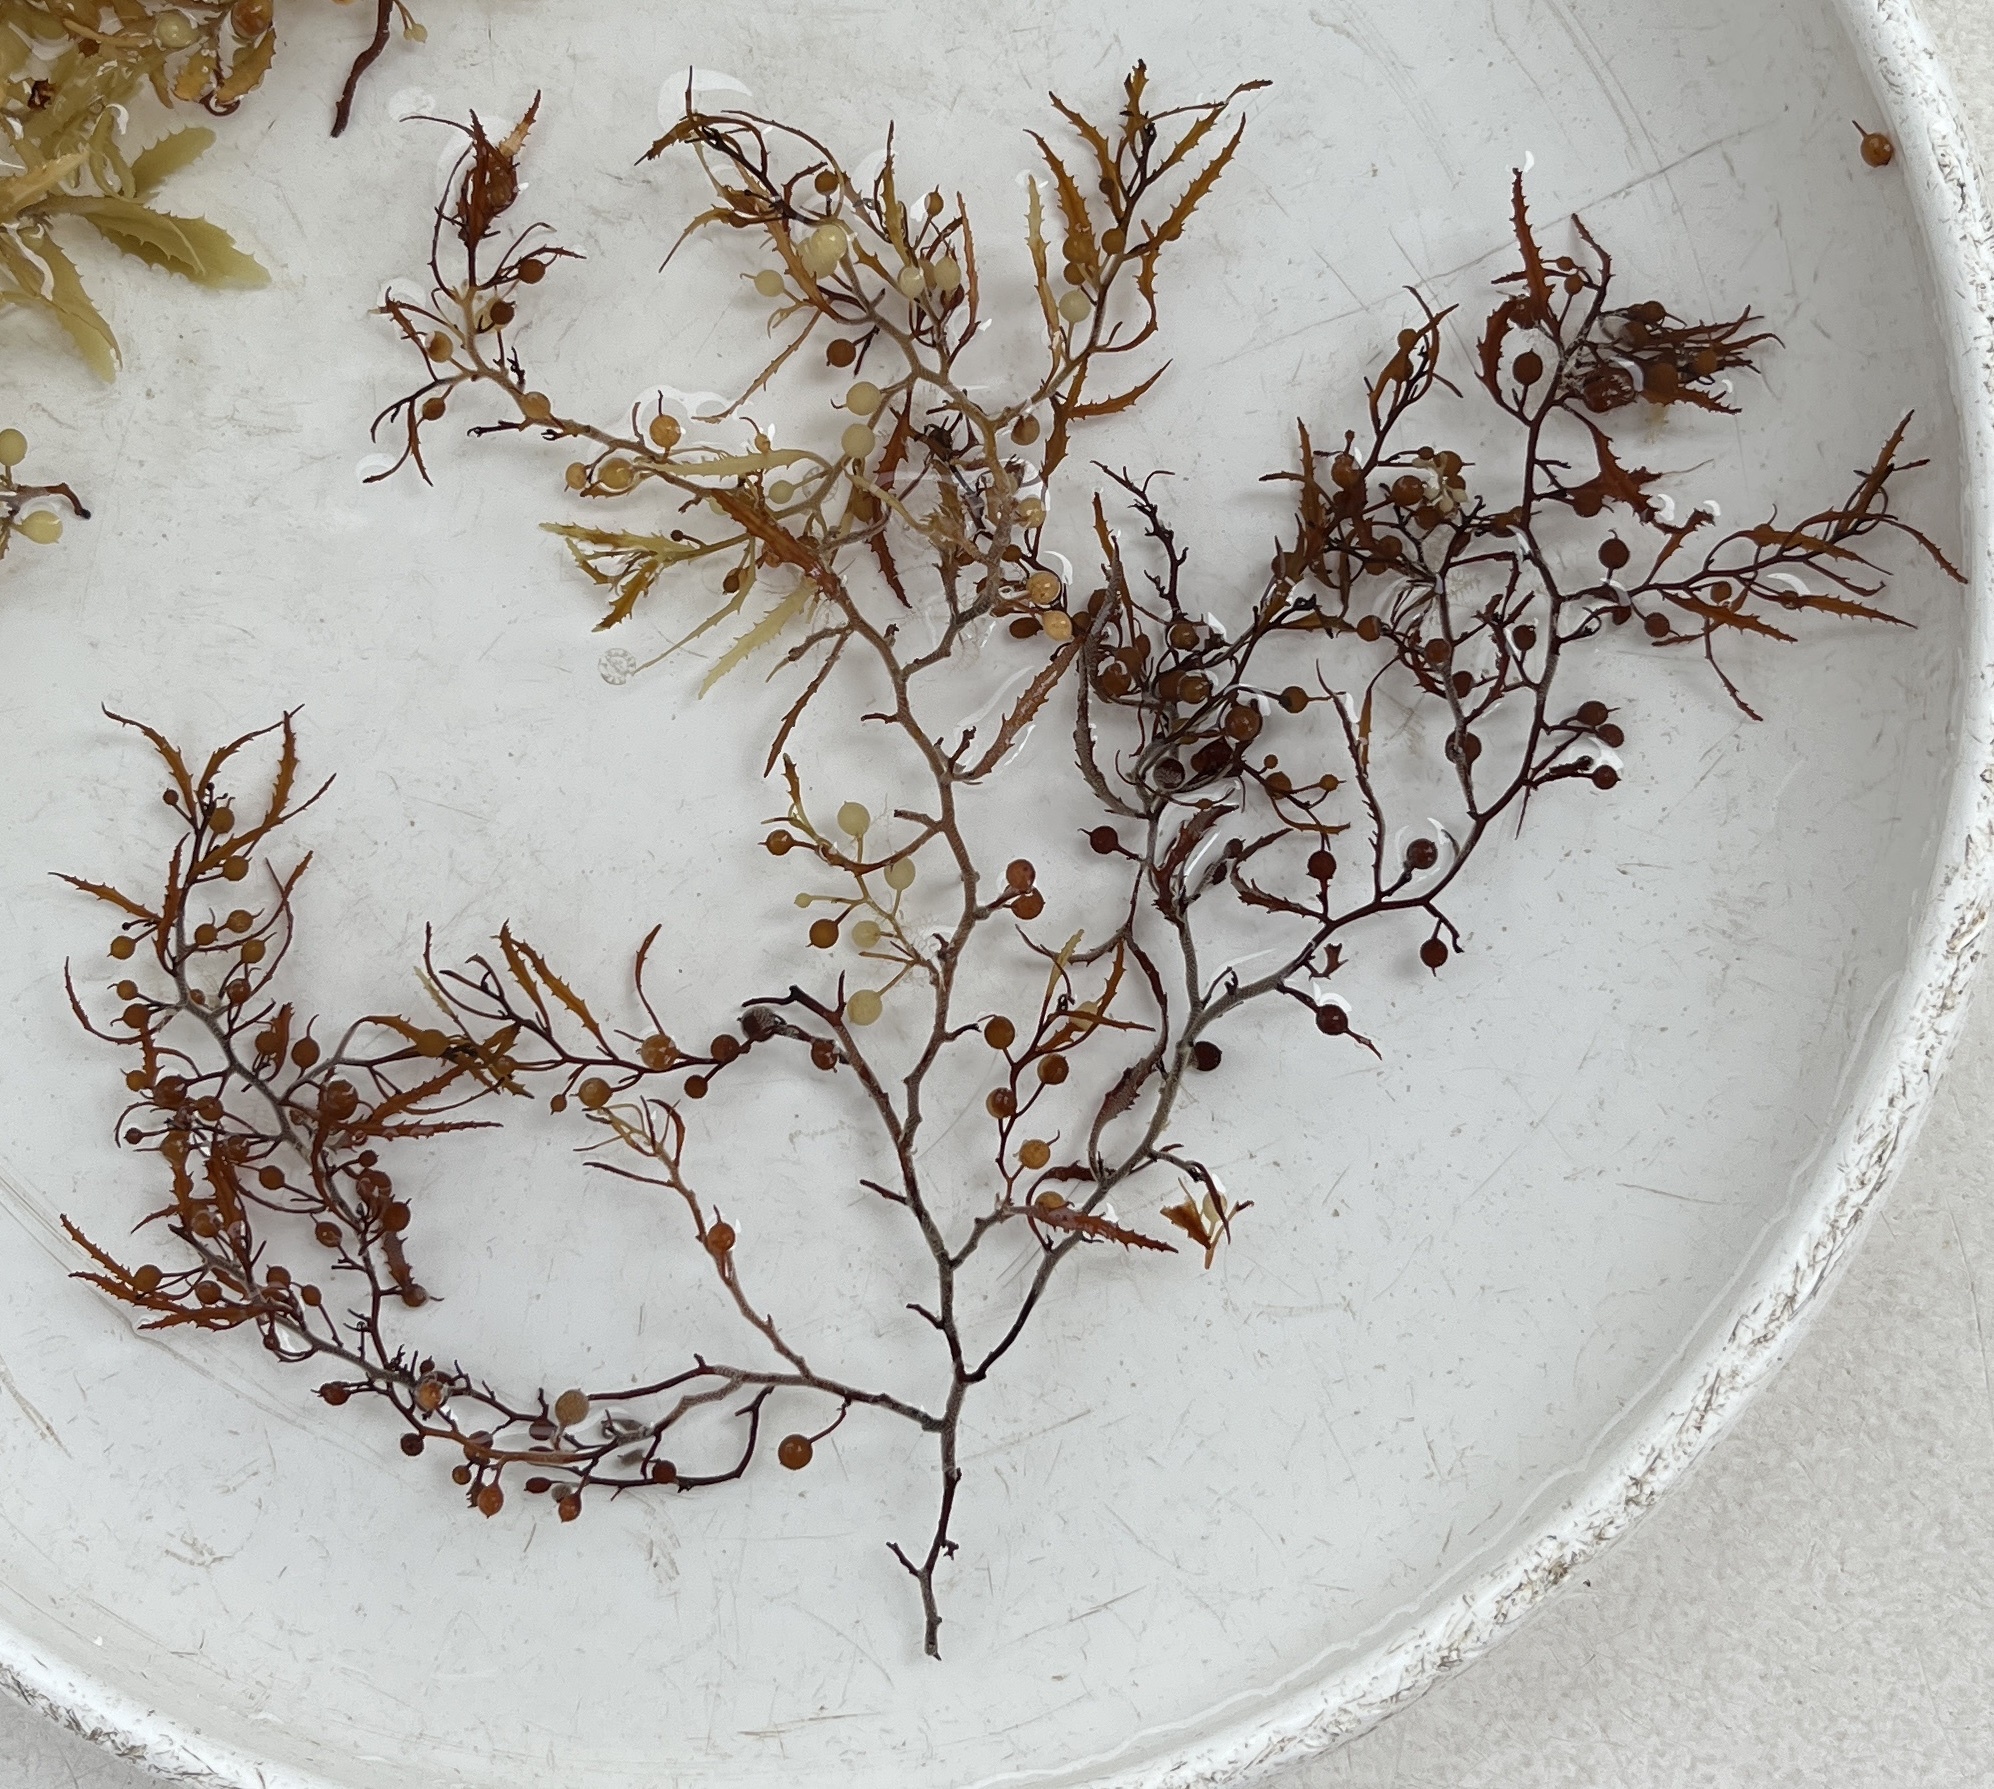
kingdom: Chromista
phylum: Ochrophyta
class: Phaeophyceae
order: Fucales
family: Sargassaceae
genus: Sargassum
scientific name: Sargassum natans
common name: Sargasso weed
